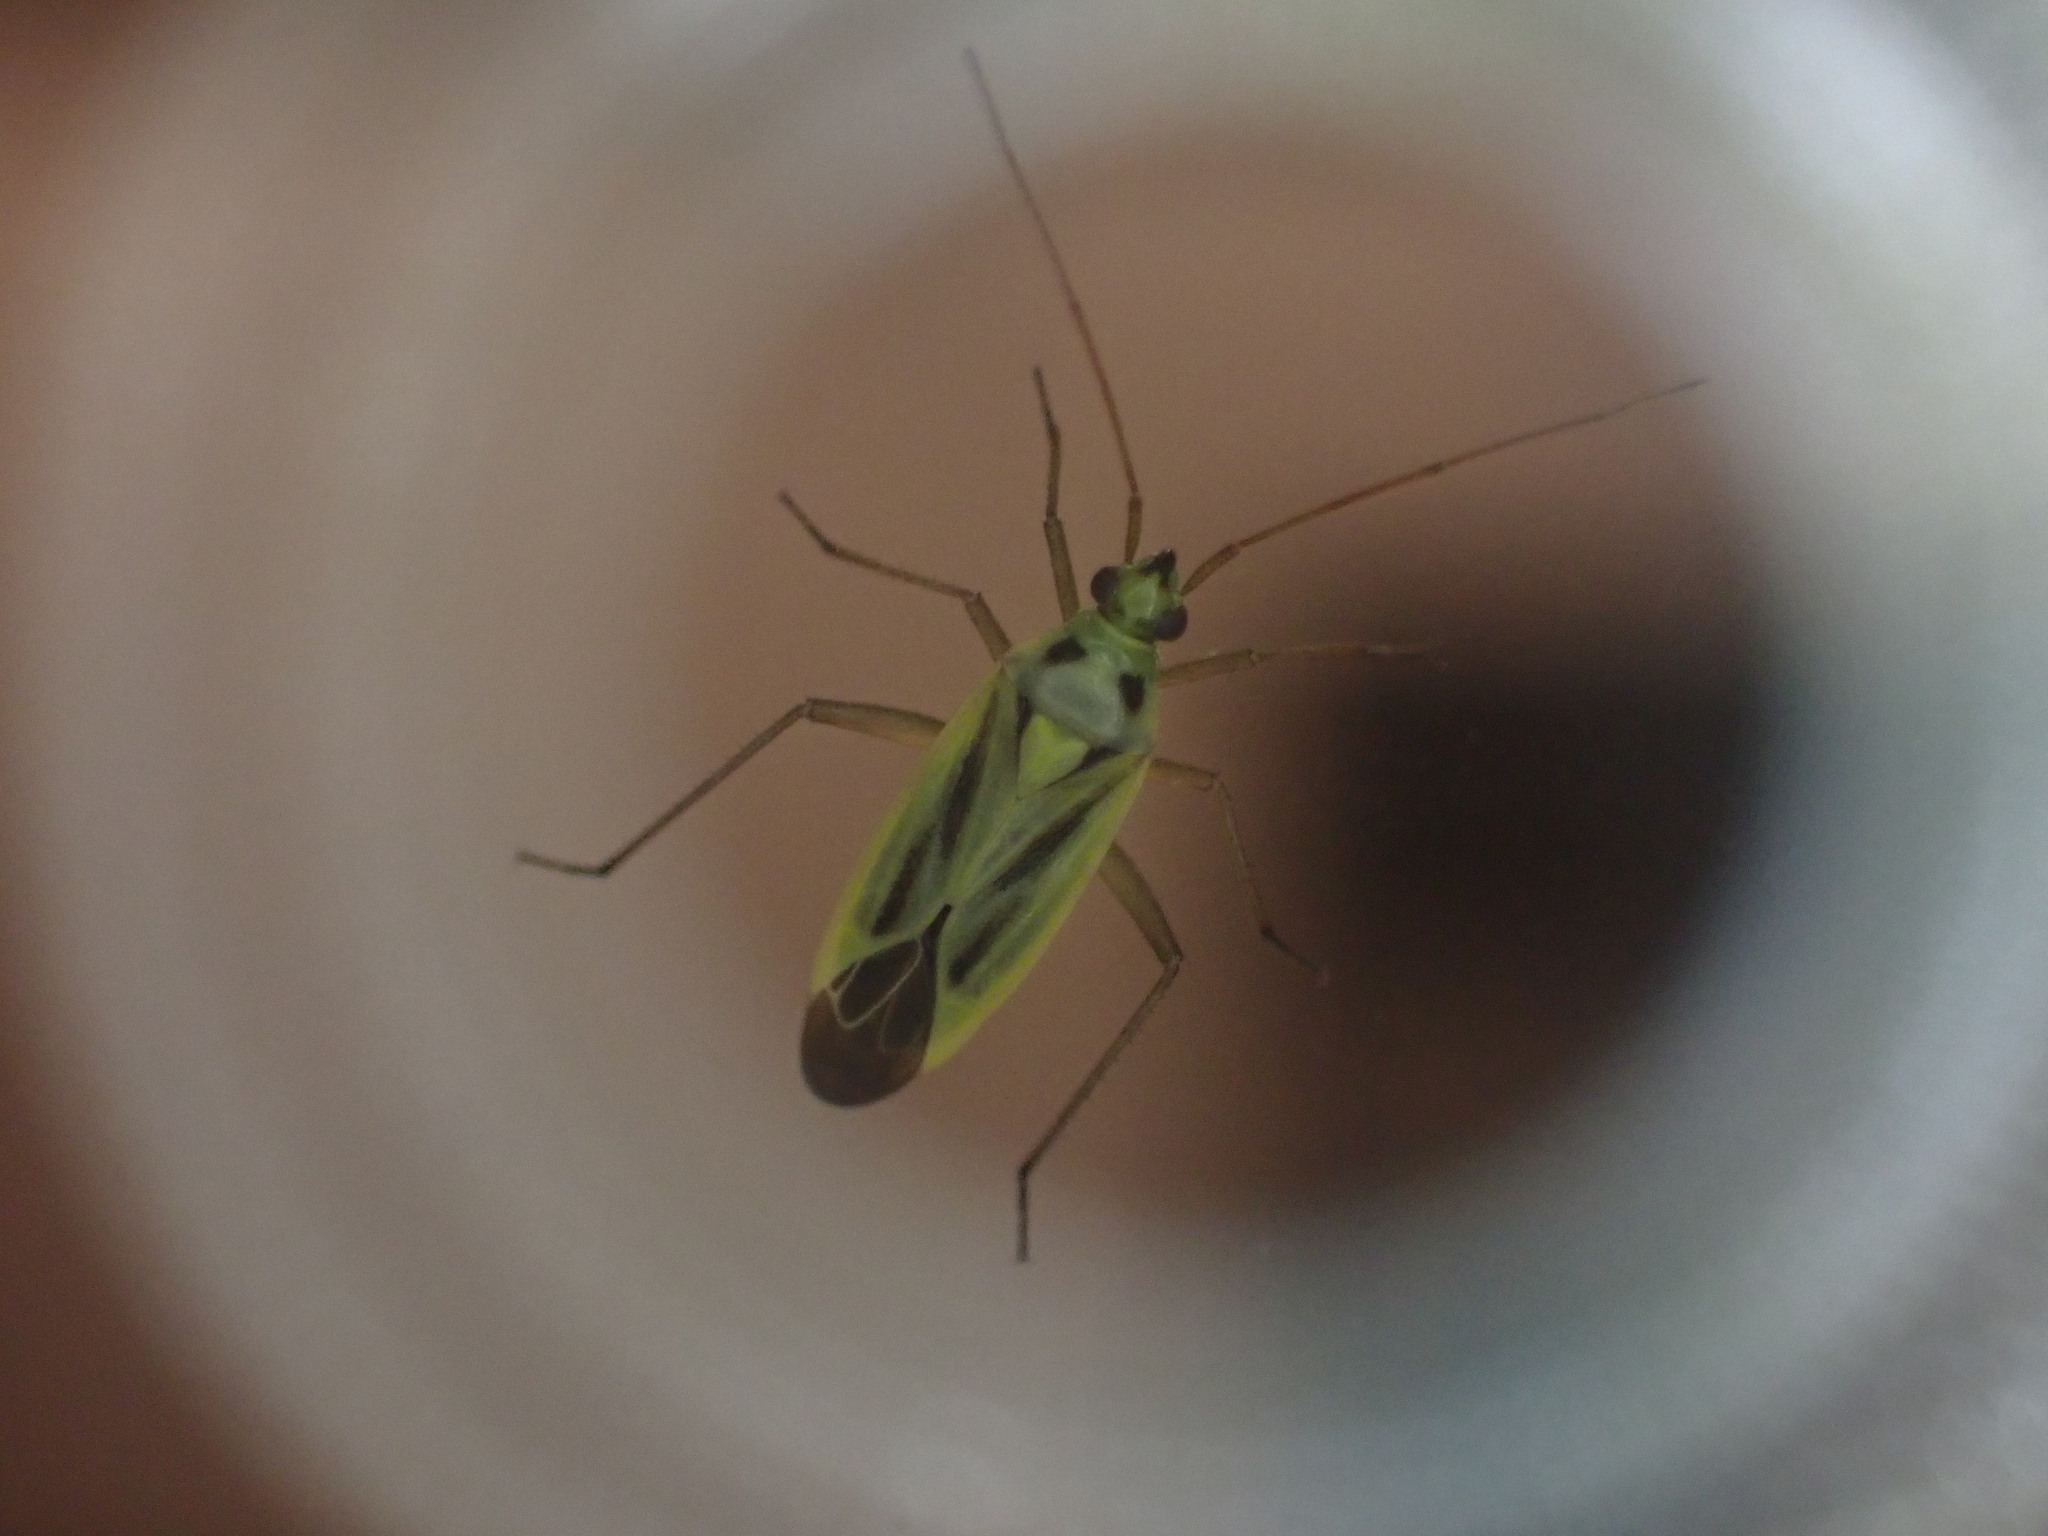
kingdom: Animalia
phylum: Arthropoda
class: Insecta
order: Hemiptera
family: Miridae
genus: Stenotus
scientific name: Stenotus binotatus
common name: Plant bug
